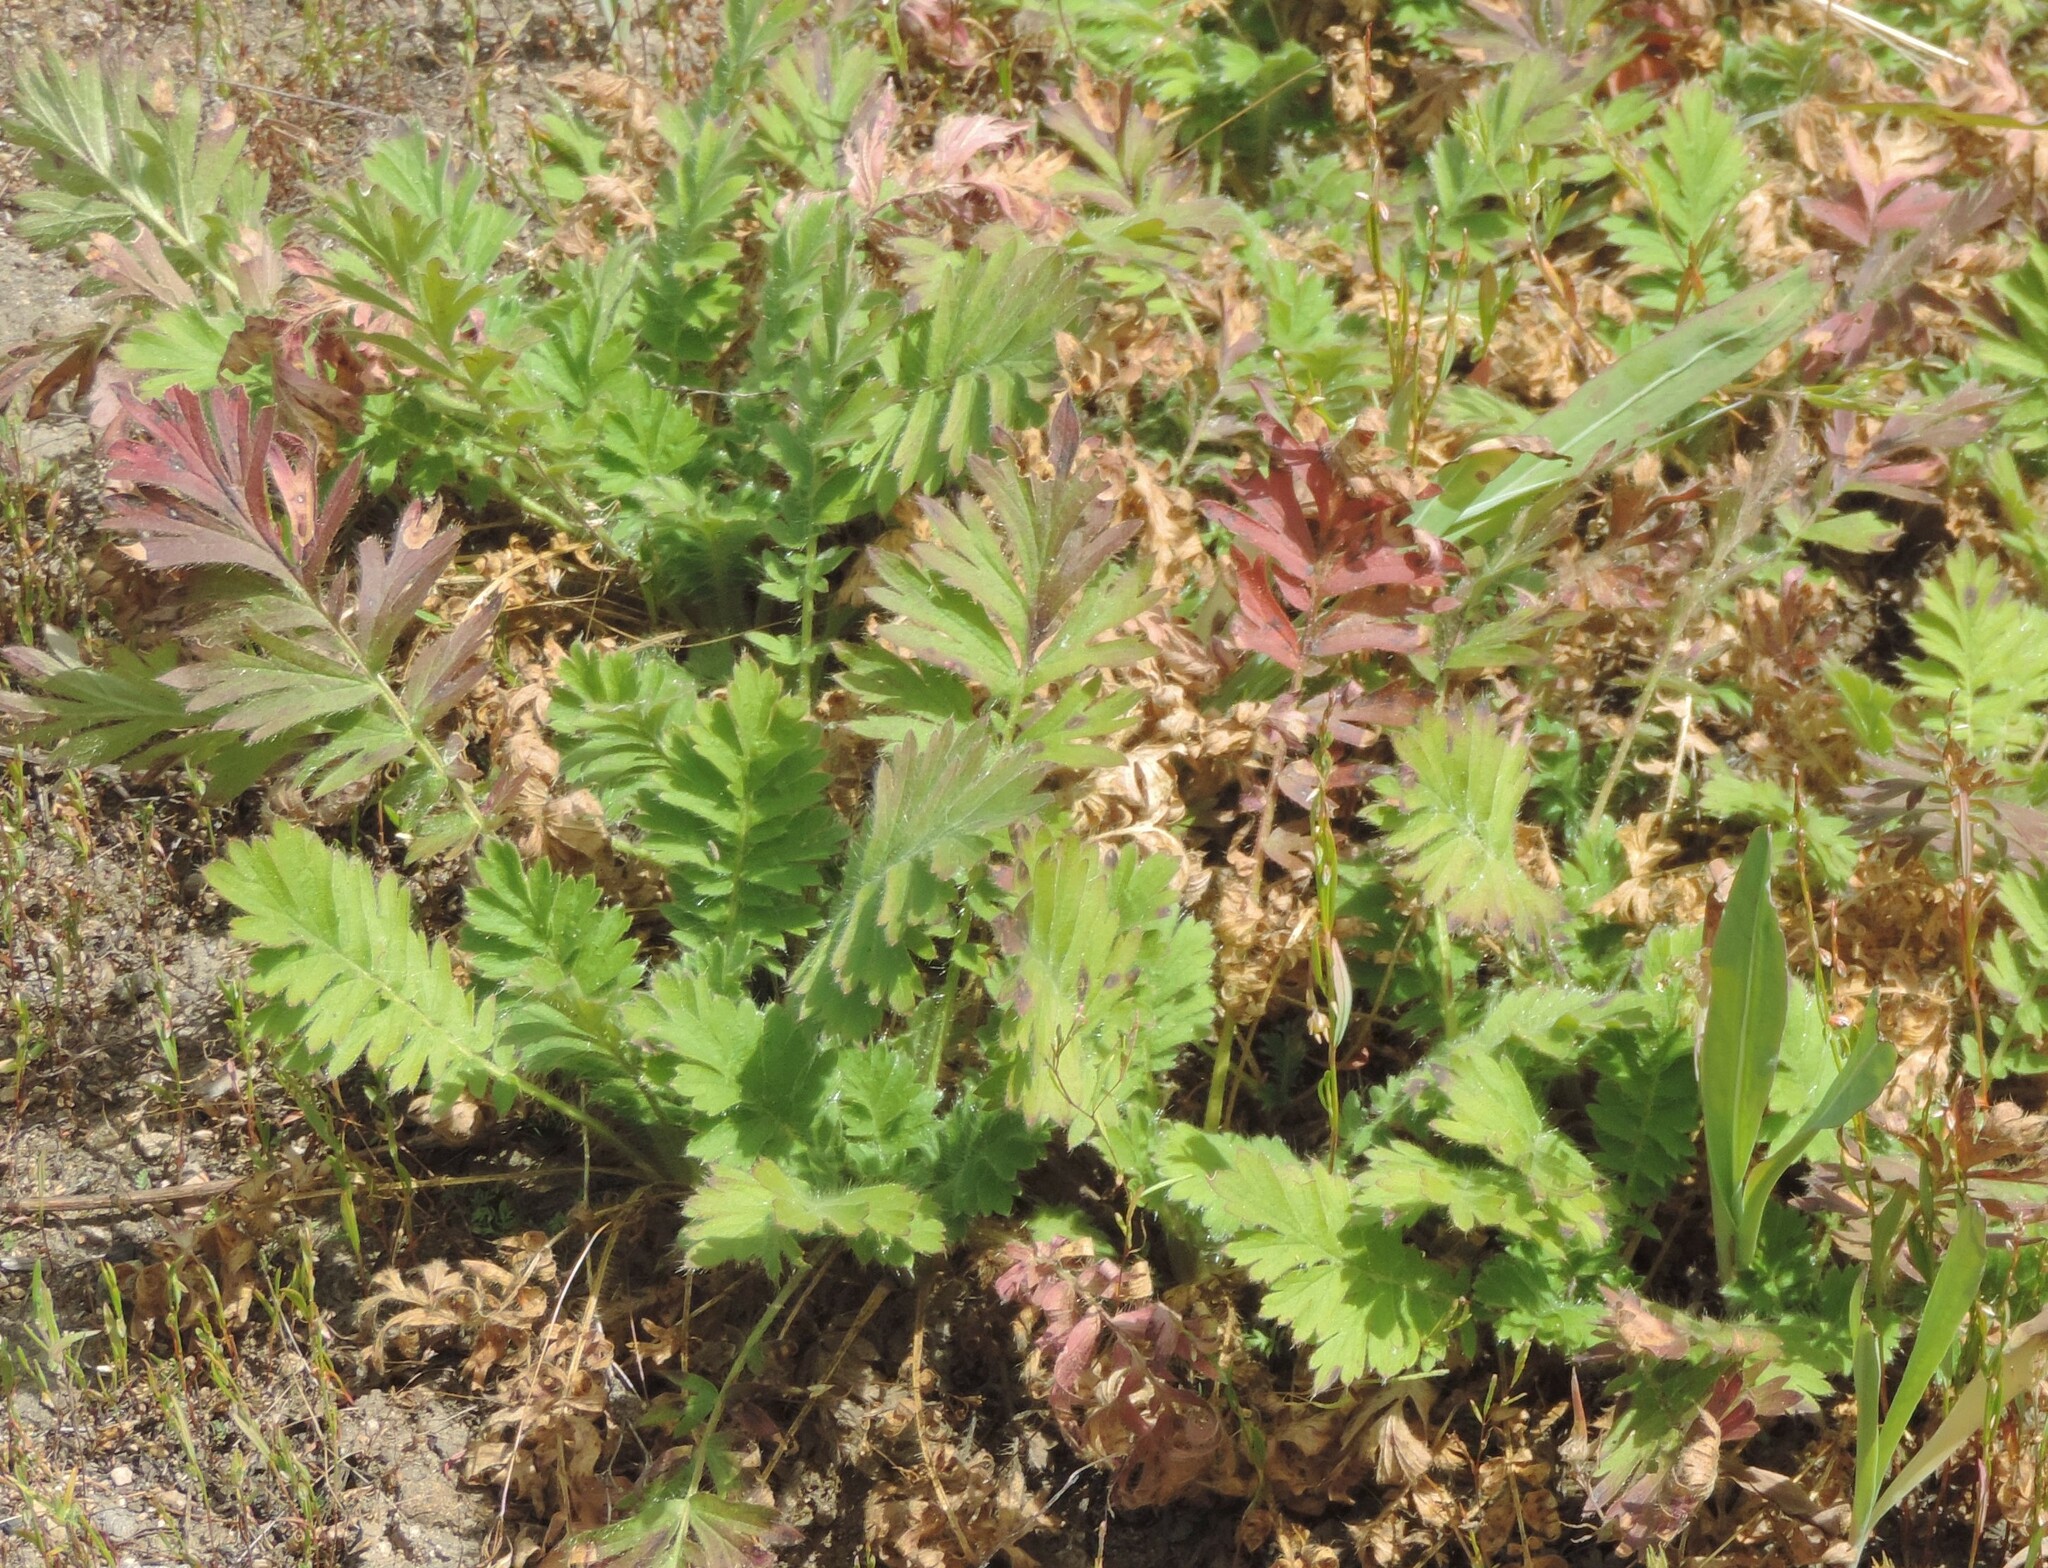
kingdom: Plantae
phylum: Tracheophyta
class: Magnoliopsida
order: Rosales
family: Rosaceae
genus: Geum
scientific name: Geum triflorum
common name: Old man's whiskers
